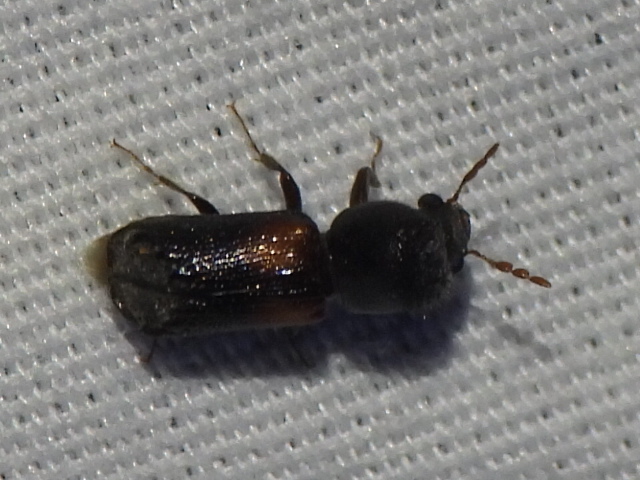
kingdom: Animalia
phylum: Arthropoda
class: Insecta
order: Coleoptera
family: Bostrichidae
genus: Xylobiops
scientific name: Xylobiops basilaris
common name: Red-shouldered bostrichid
